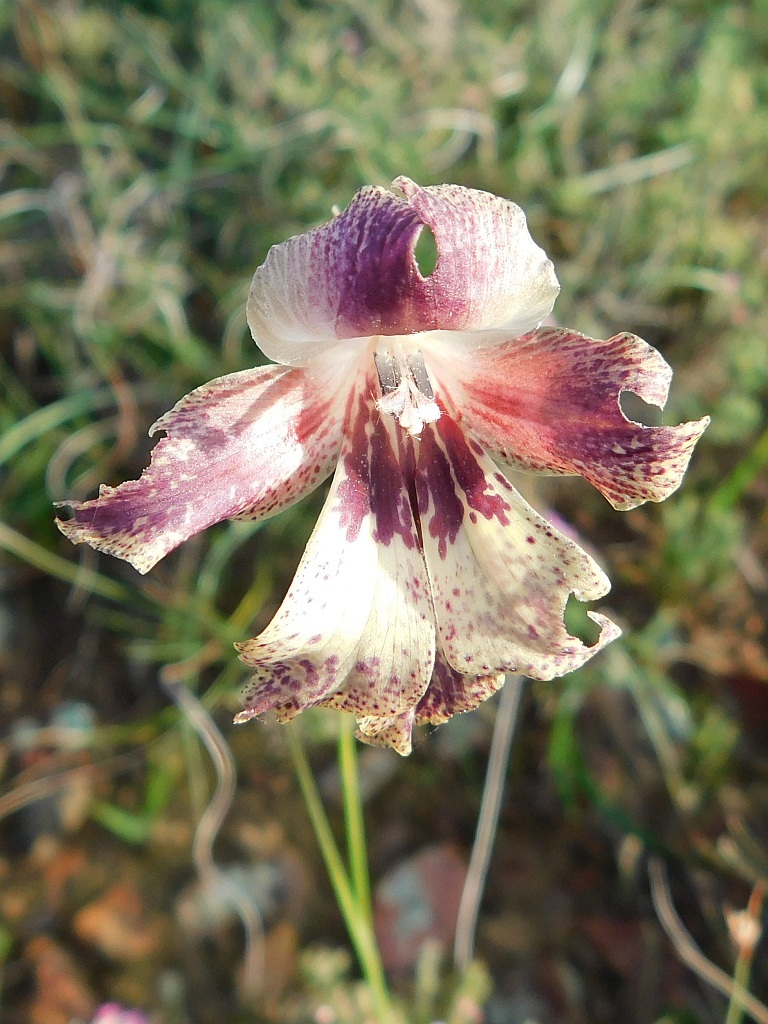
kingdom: Plantae
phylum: Tracheophyta
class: Liliopsida
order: Asparagales
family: Iridaceae
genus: Gladiolus
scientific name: Gladiolus maculatus
